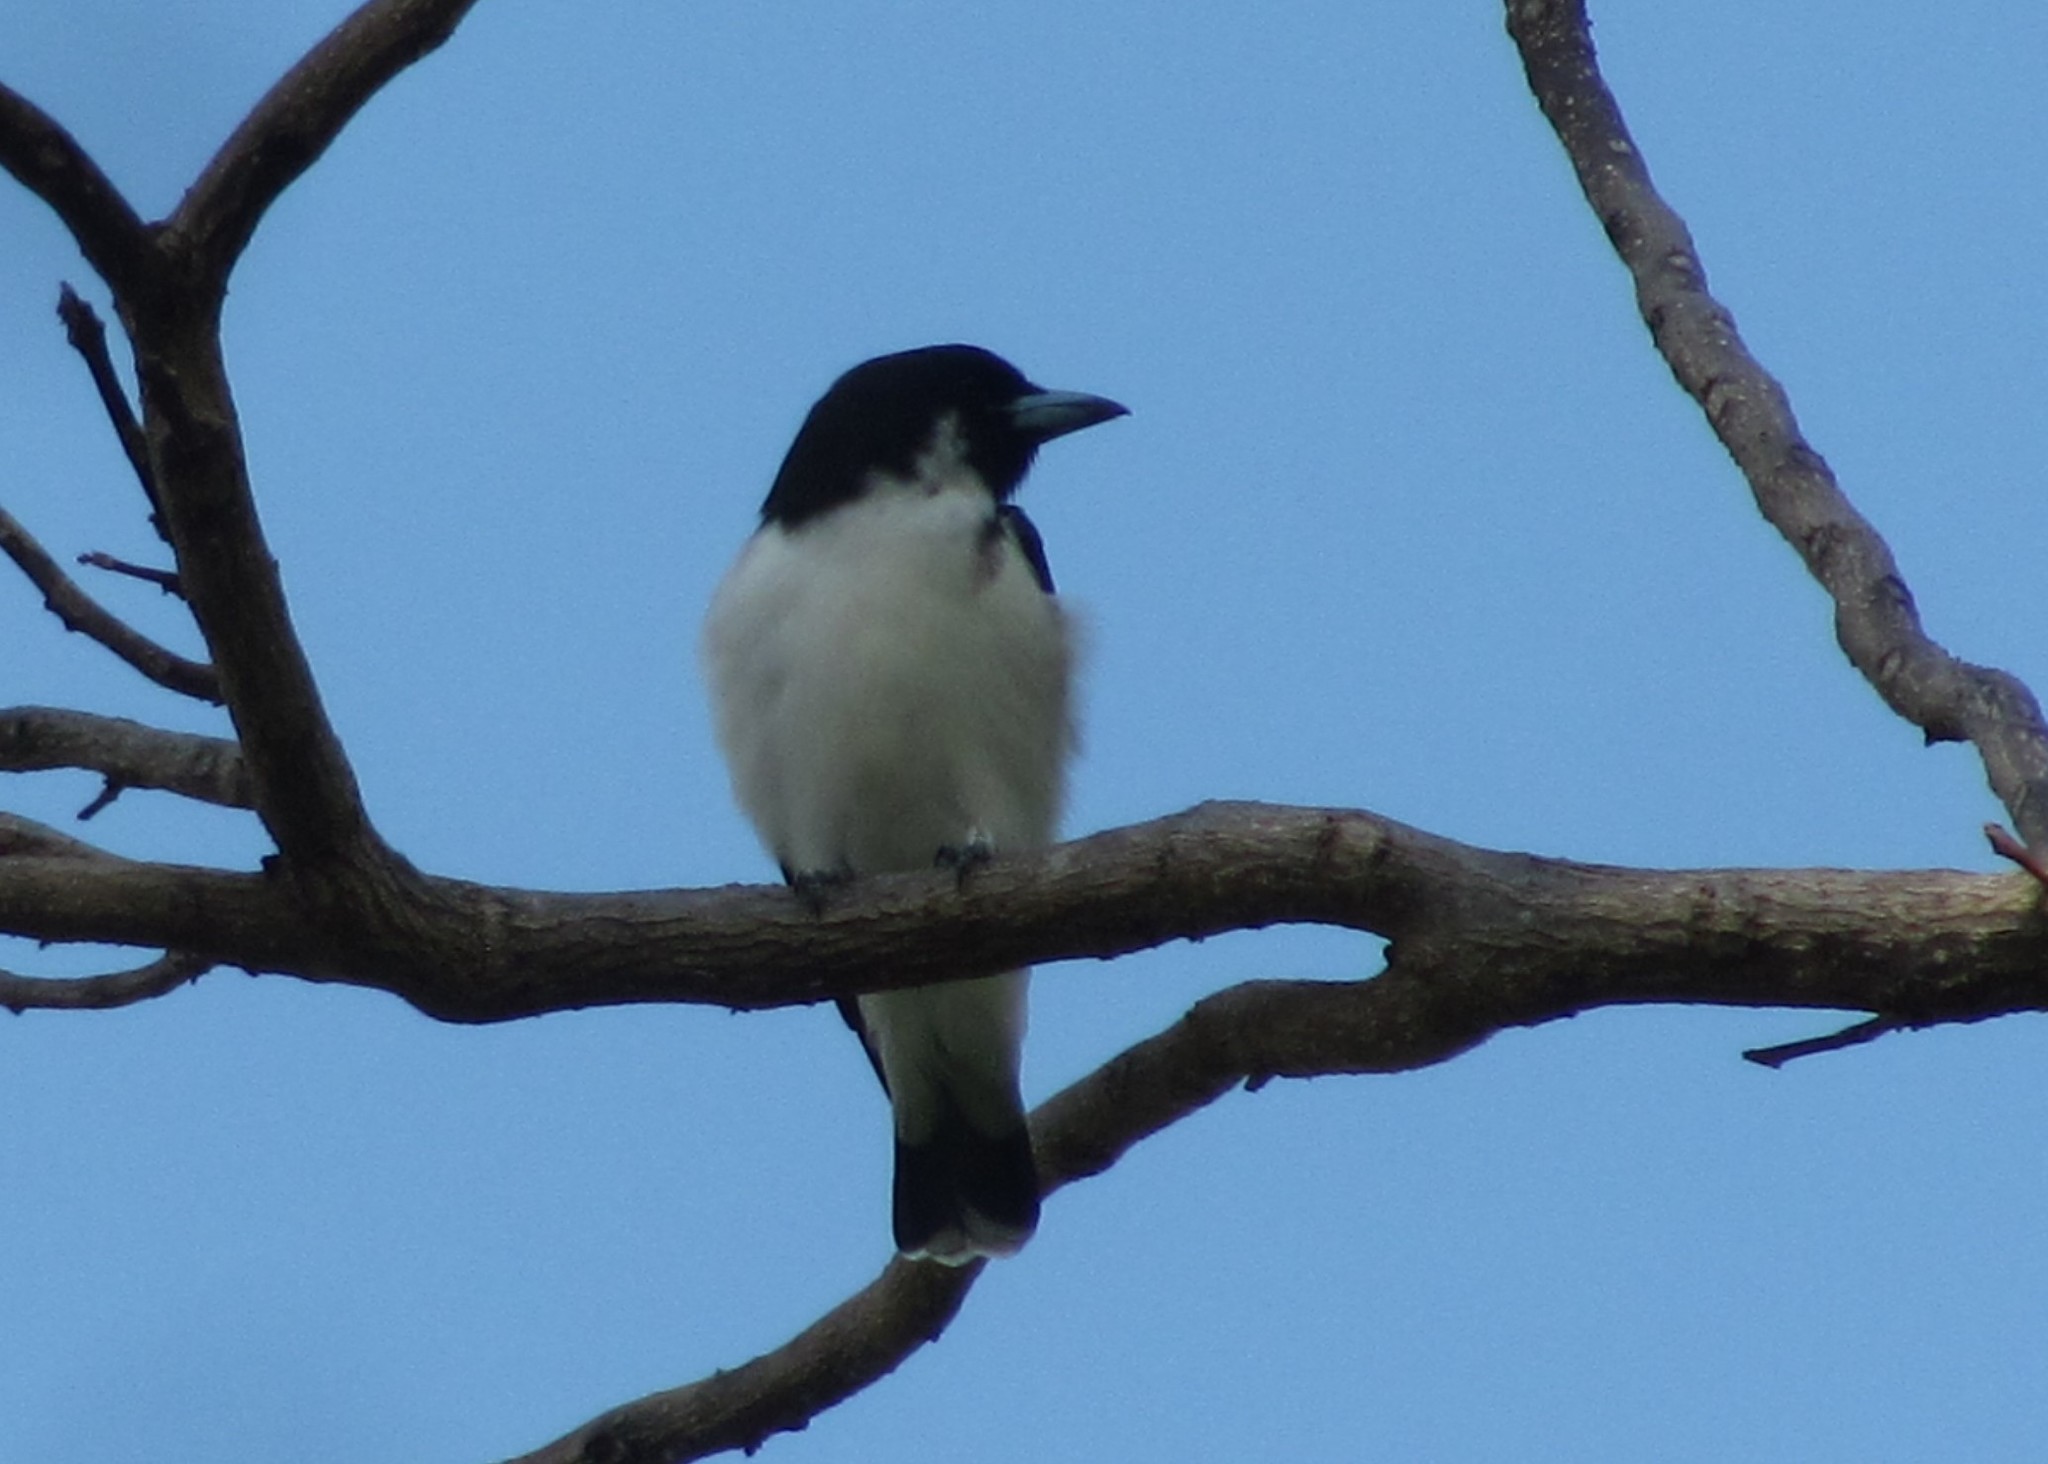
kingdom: Animalia
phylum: Chordata
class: Aves
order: Passeriformes
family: Artamidae
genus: Artamus
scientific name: Artamus mentalis
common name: Fiji woodswallow
